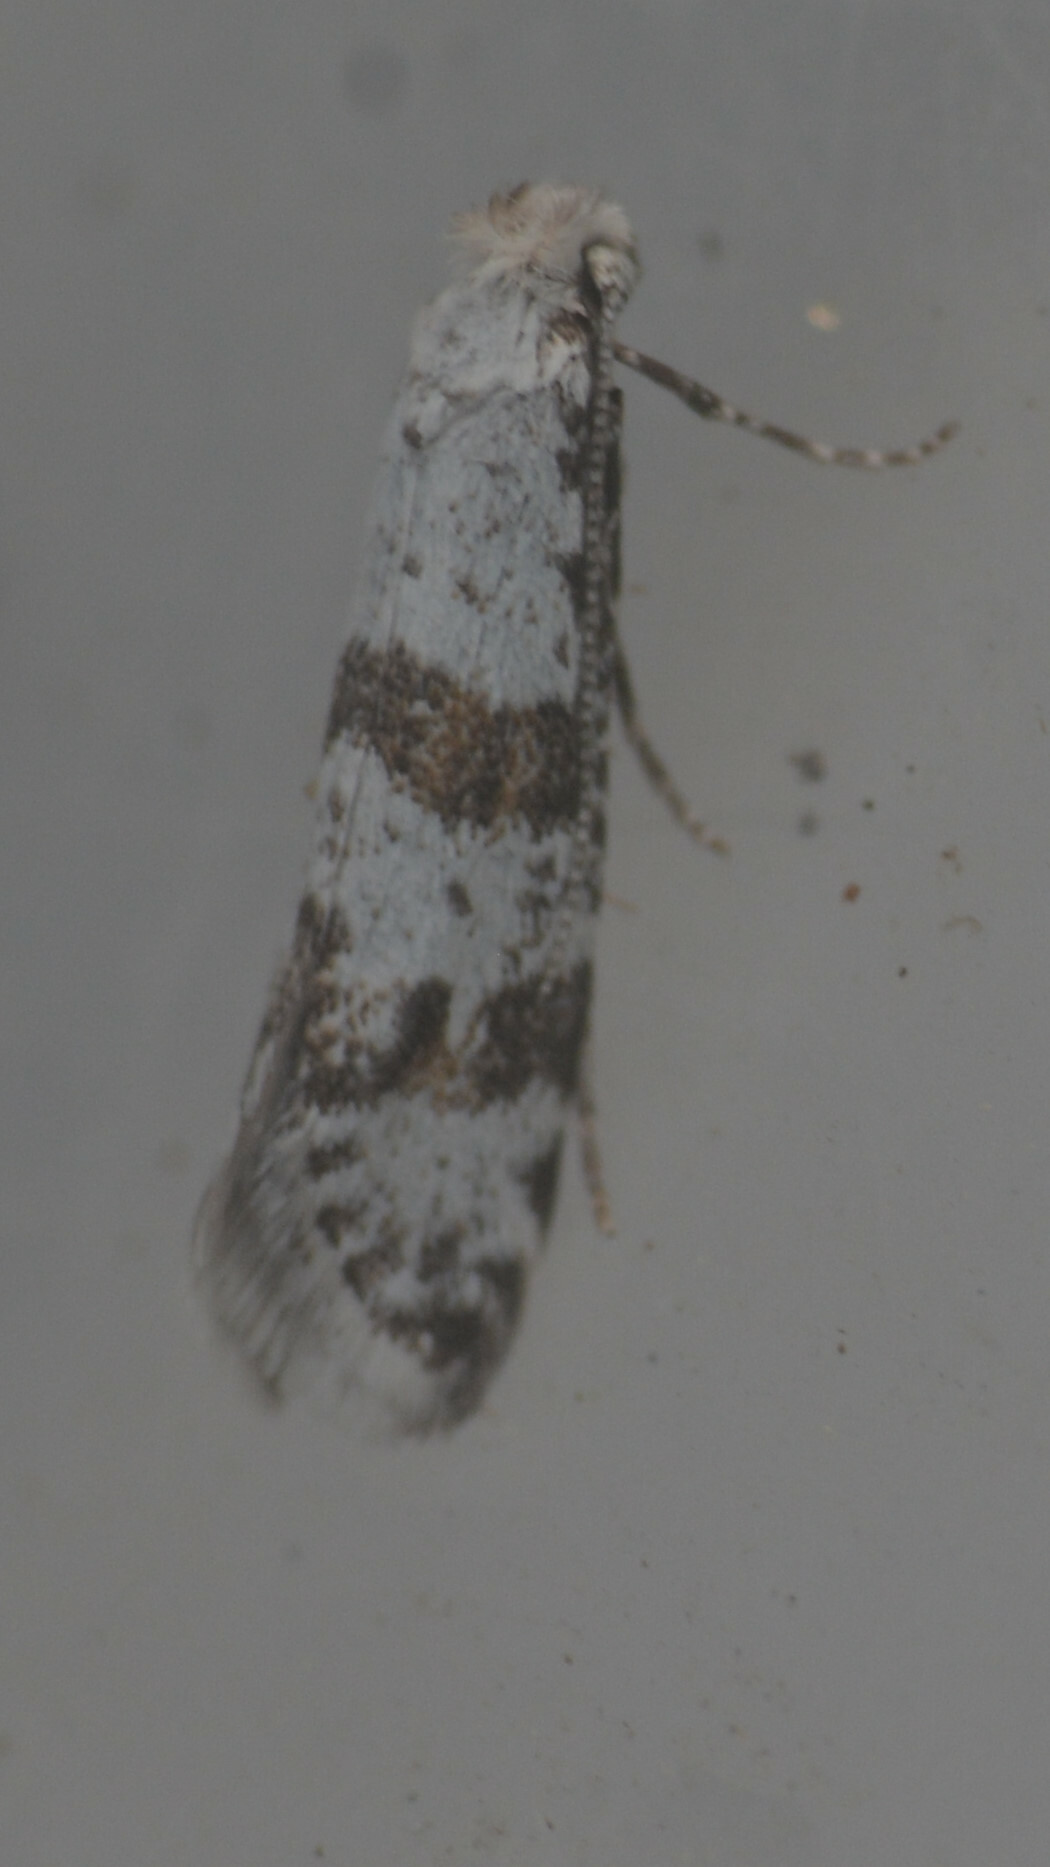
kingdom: Animalia
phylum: Arthropoda
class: Insecta
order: Lepidoptera
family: Yponomeutidae
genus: Scythropia
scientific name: Scythropia crataegella
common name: Hawthorn moth
